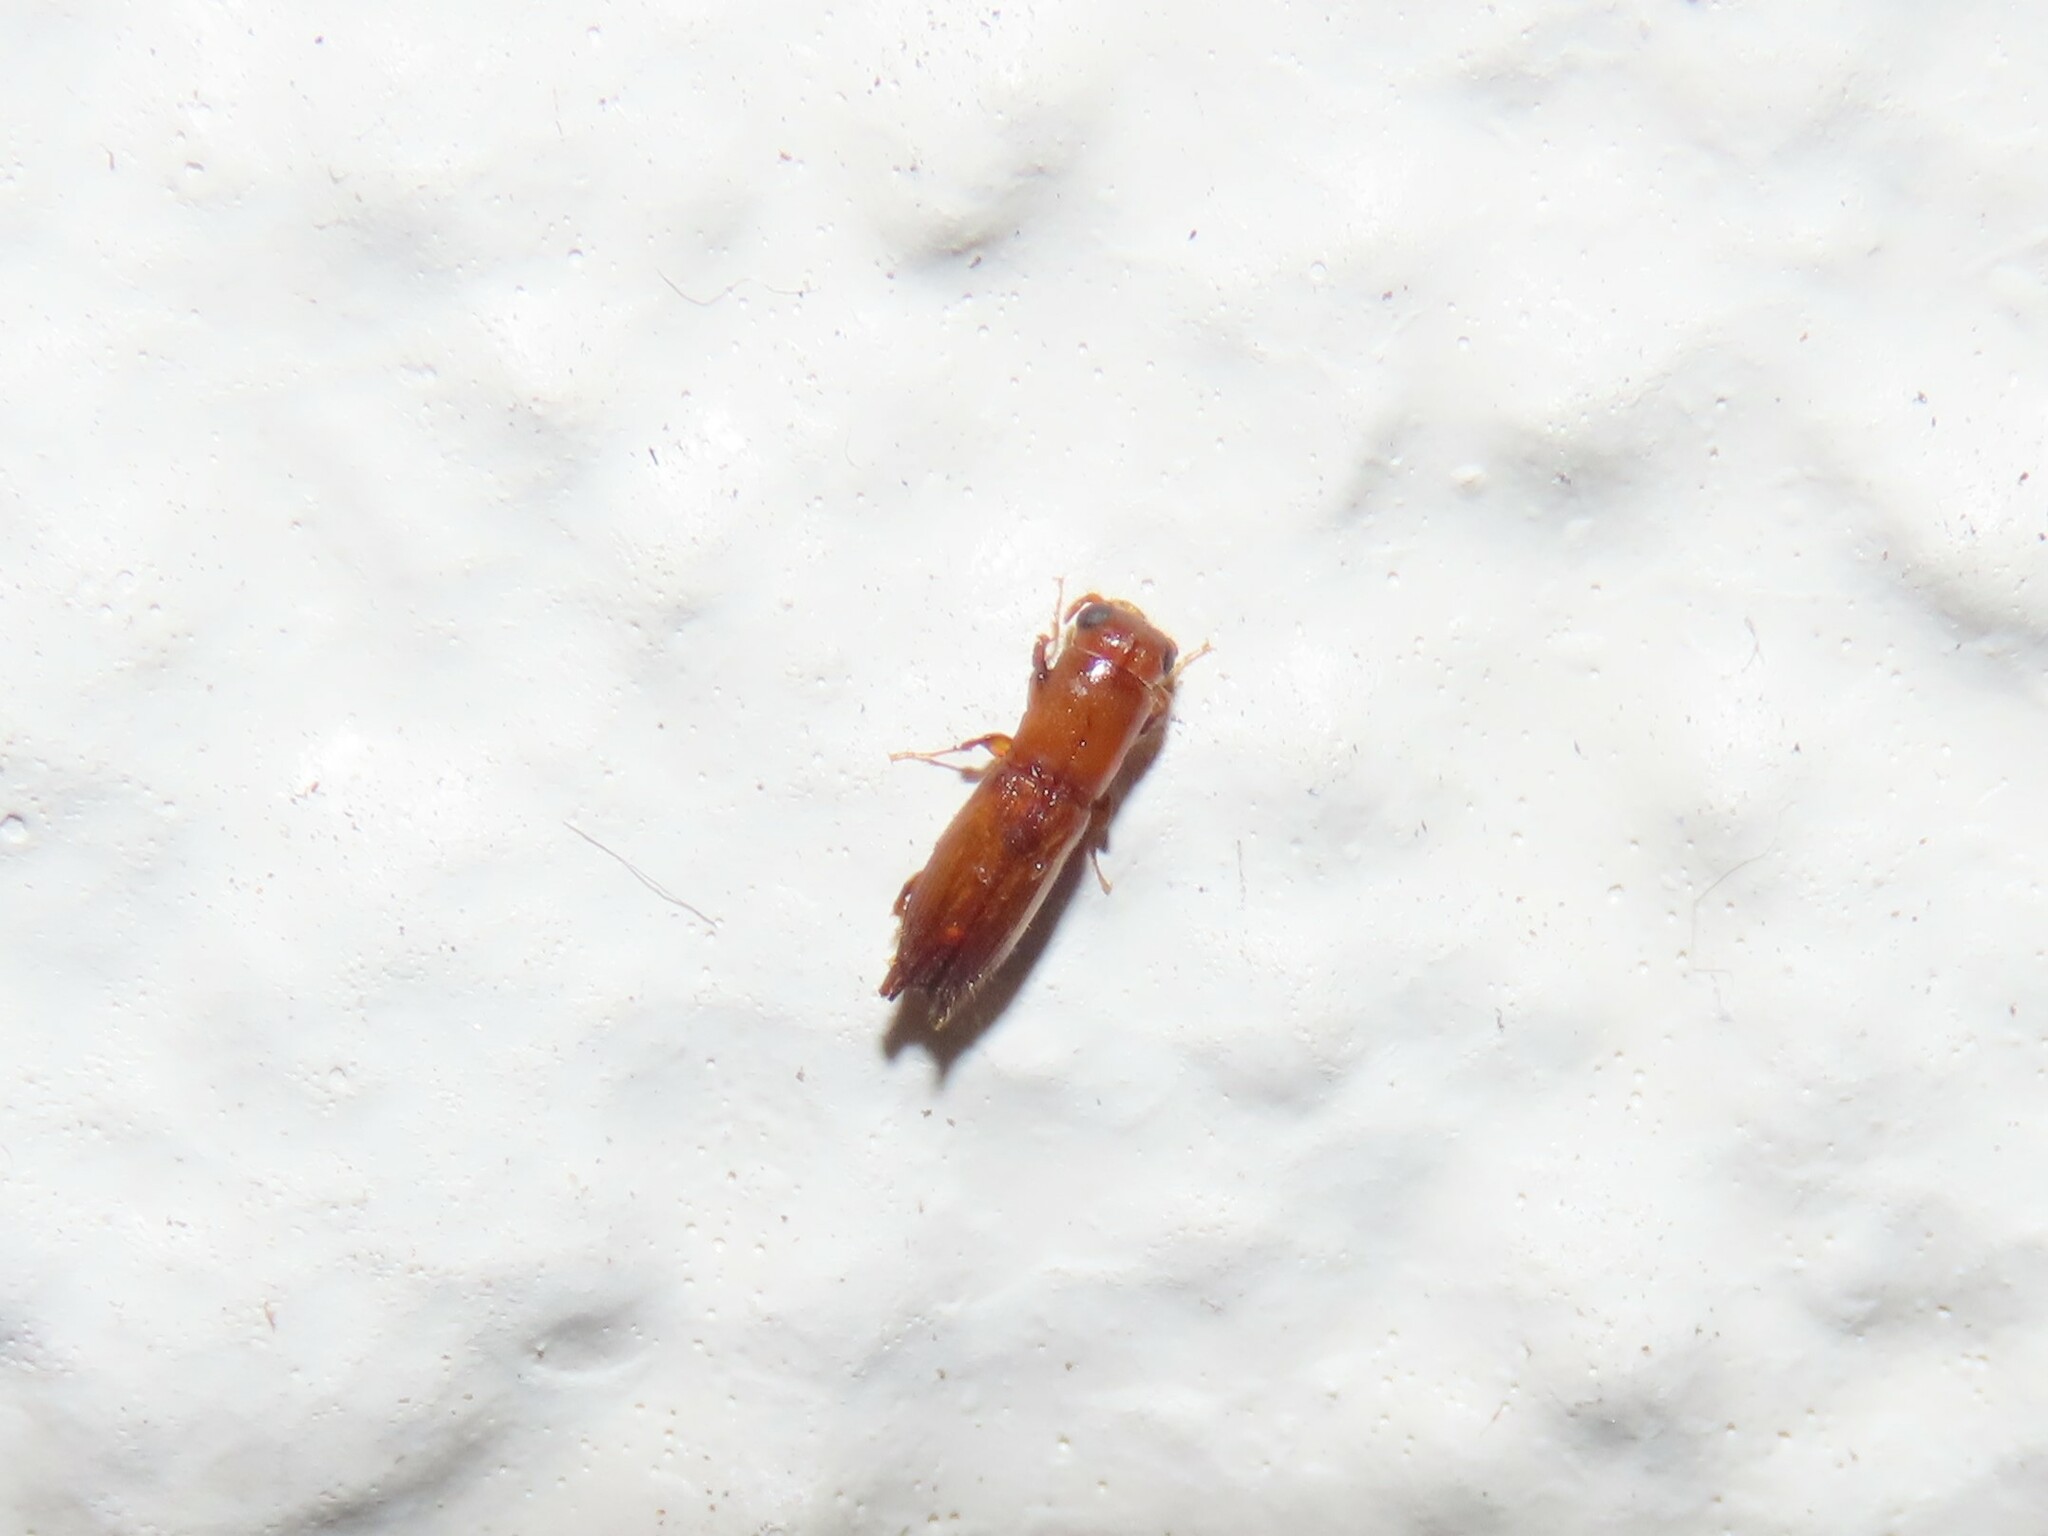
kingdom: Animalia
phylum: Arthropoda
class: Insecta
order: Coleoptera
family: Curculionidae
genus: Euplatypus
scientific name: Euplatypus compositus
